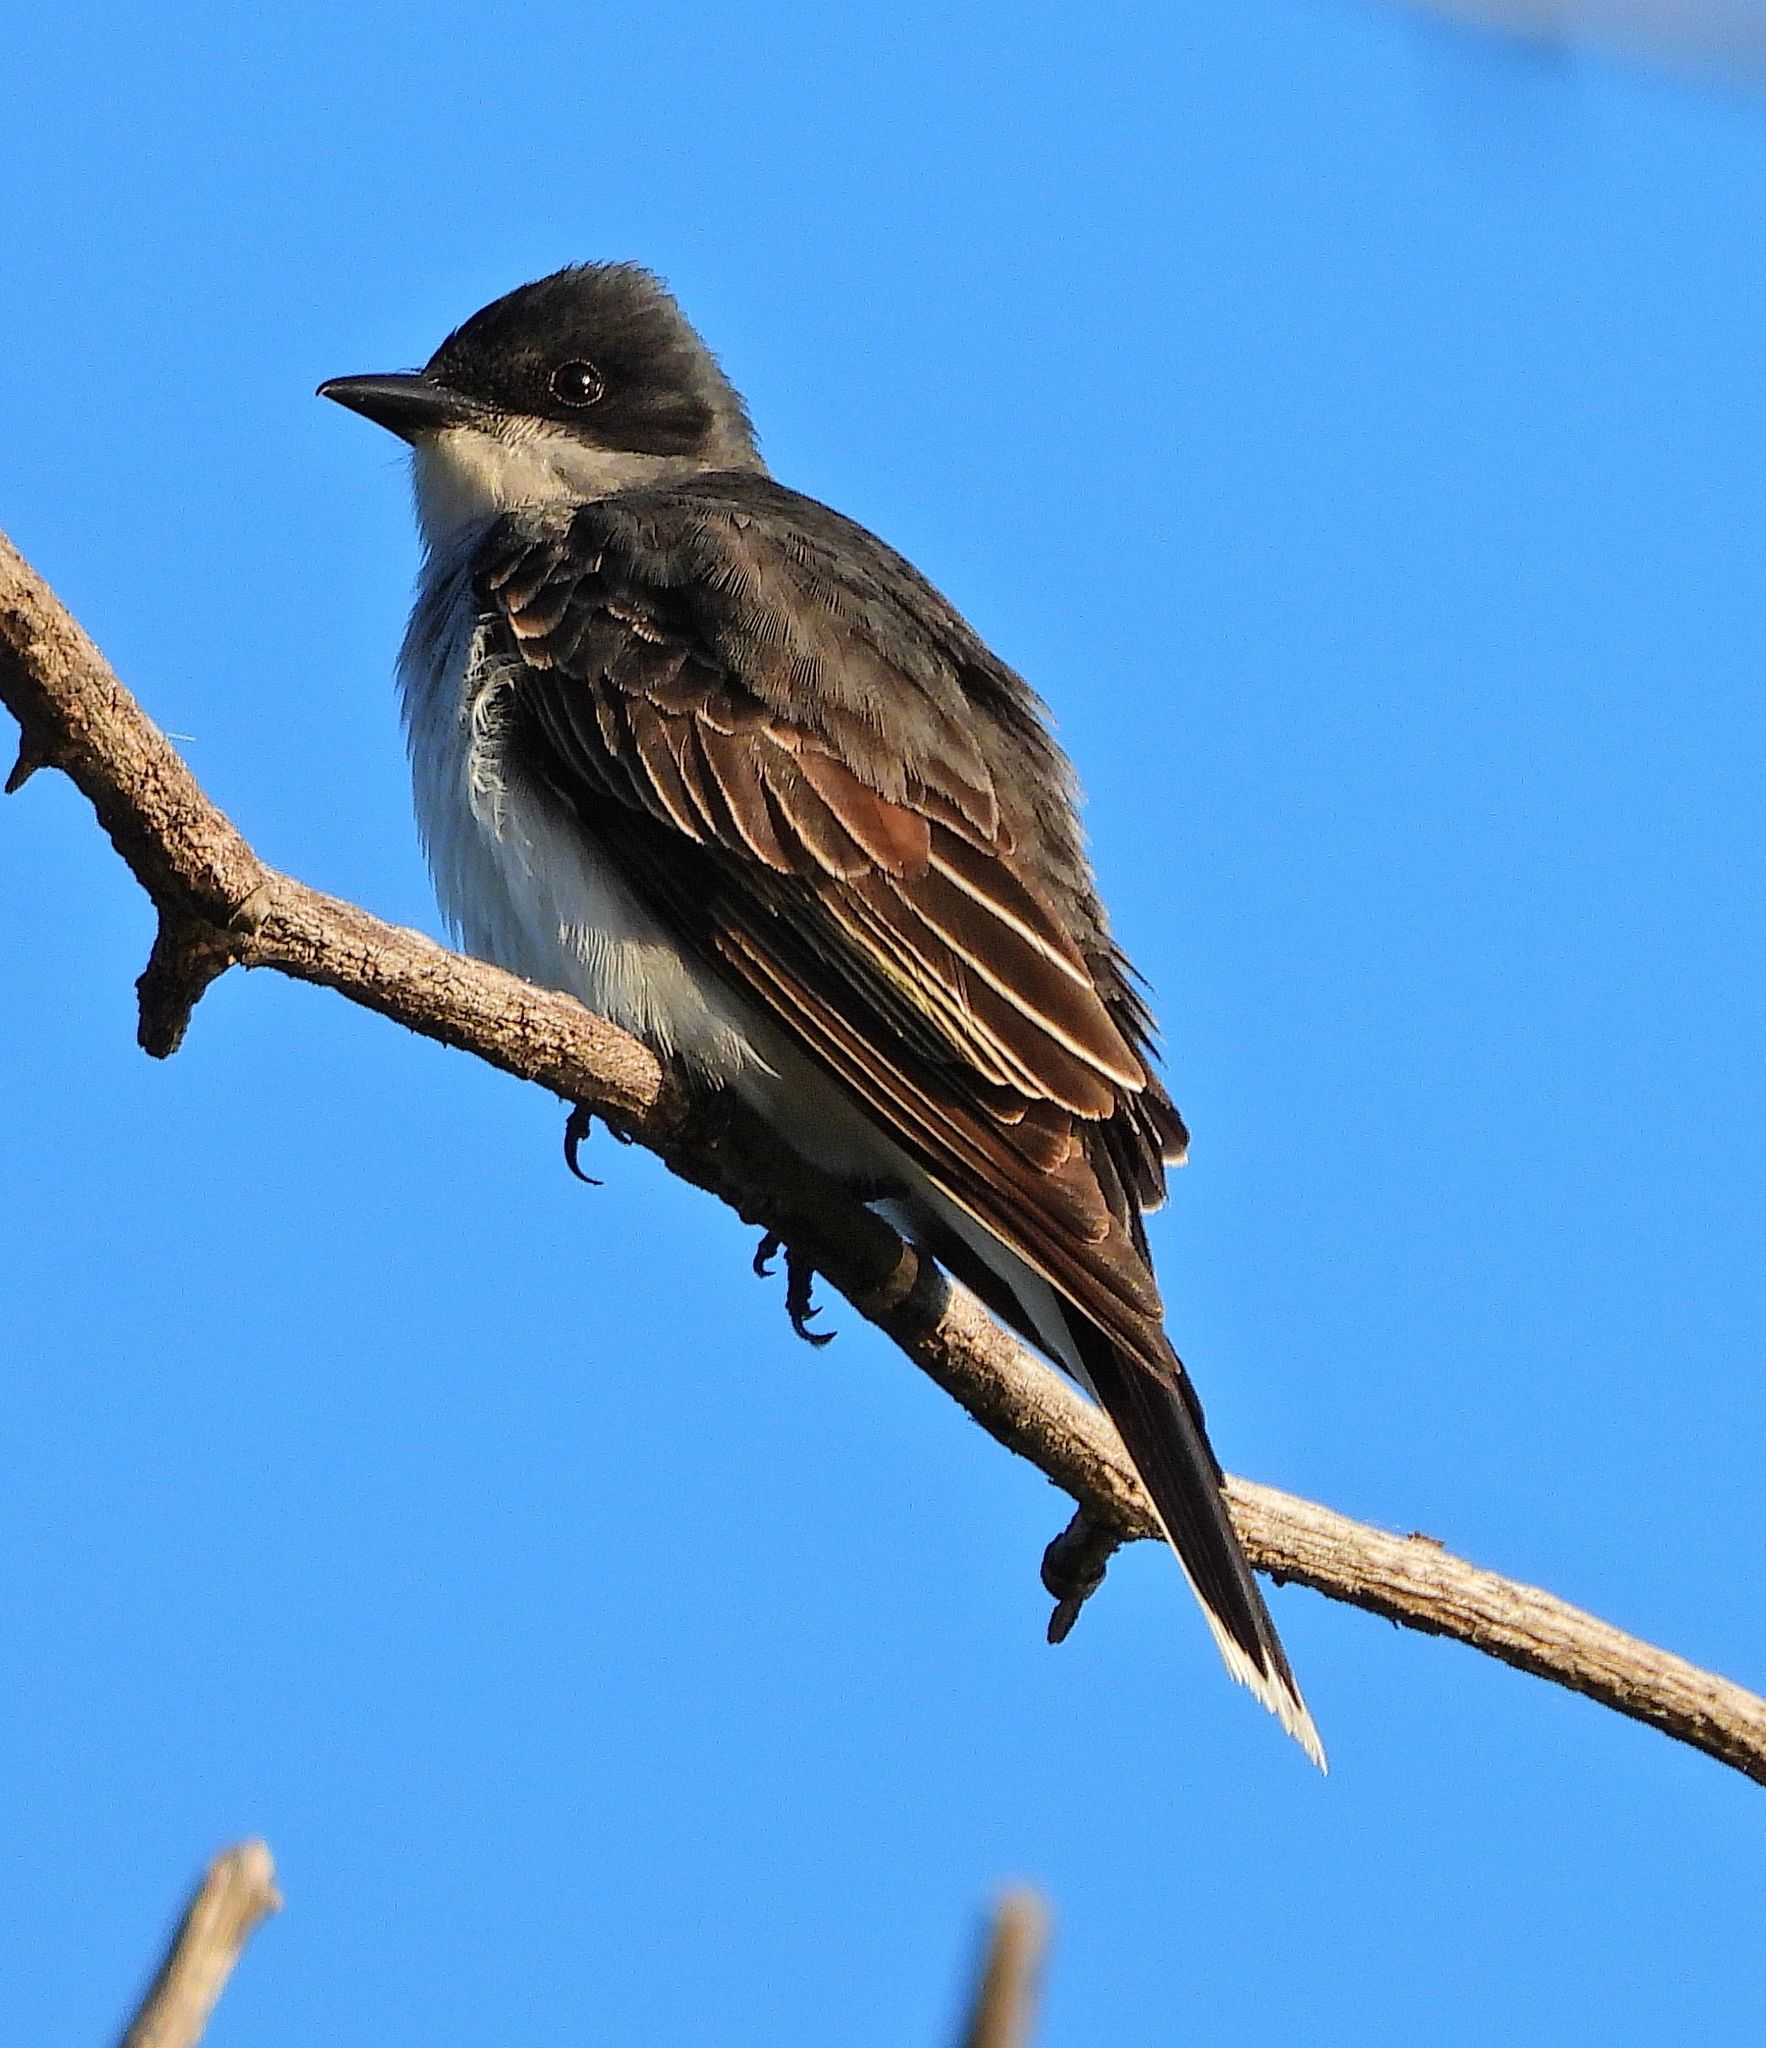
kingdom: Animalia
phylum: Chordata
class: Aves
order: Passeriformes
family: Tyrannidae
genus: Tyrannus
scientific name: Tyrannus tyrannus
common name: Eastern kingbird
